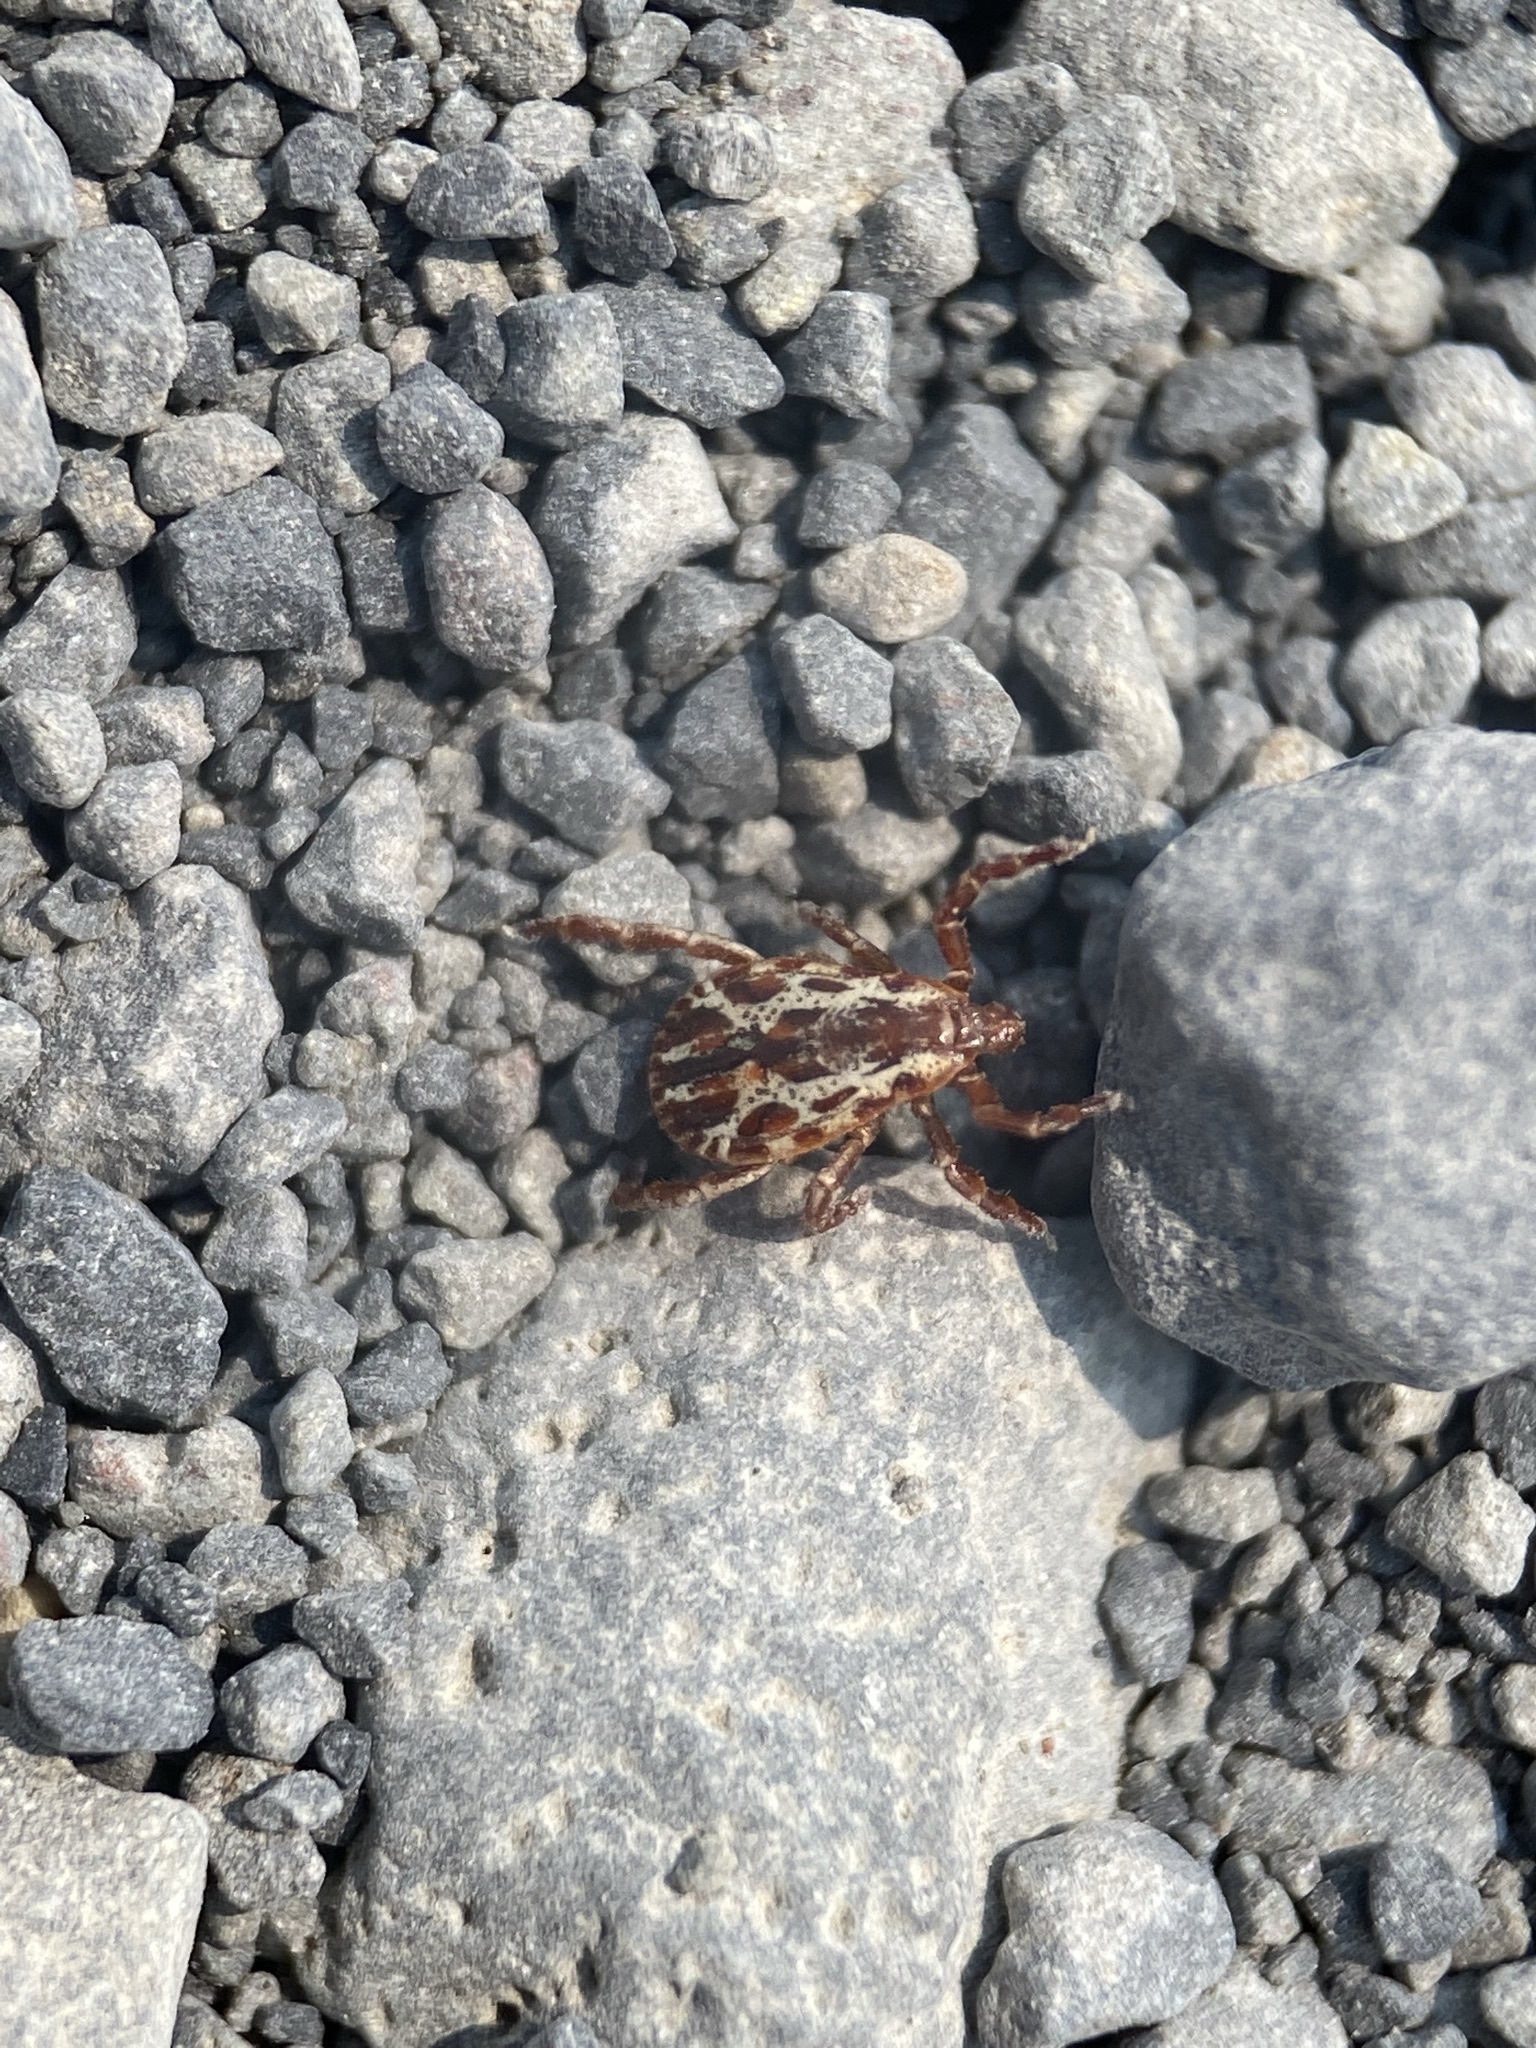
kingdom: Animalia
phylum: Arthropoda
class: Arachnida
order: Ixodida
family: Ixodidae
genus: Dermacentor
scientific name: Dermacentor variabilis
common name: American dog tick
